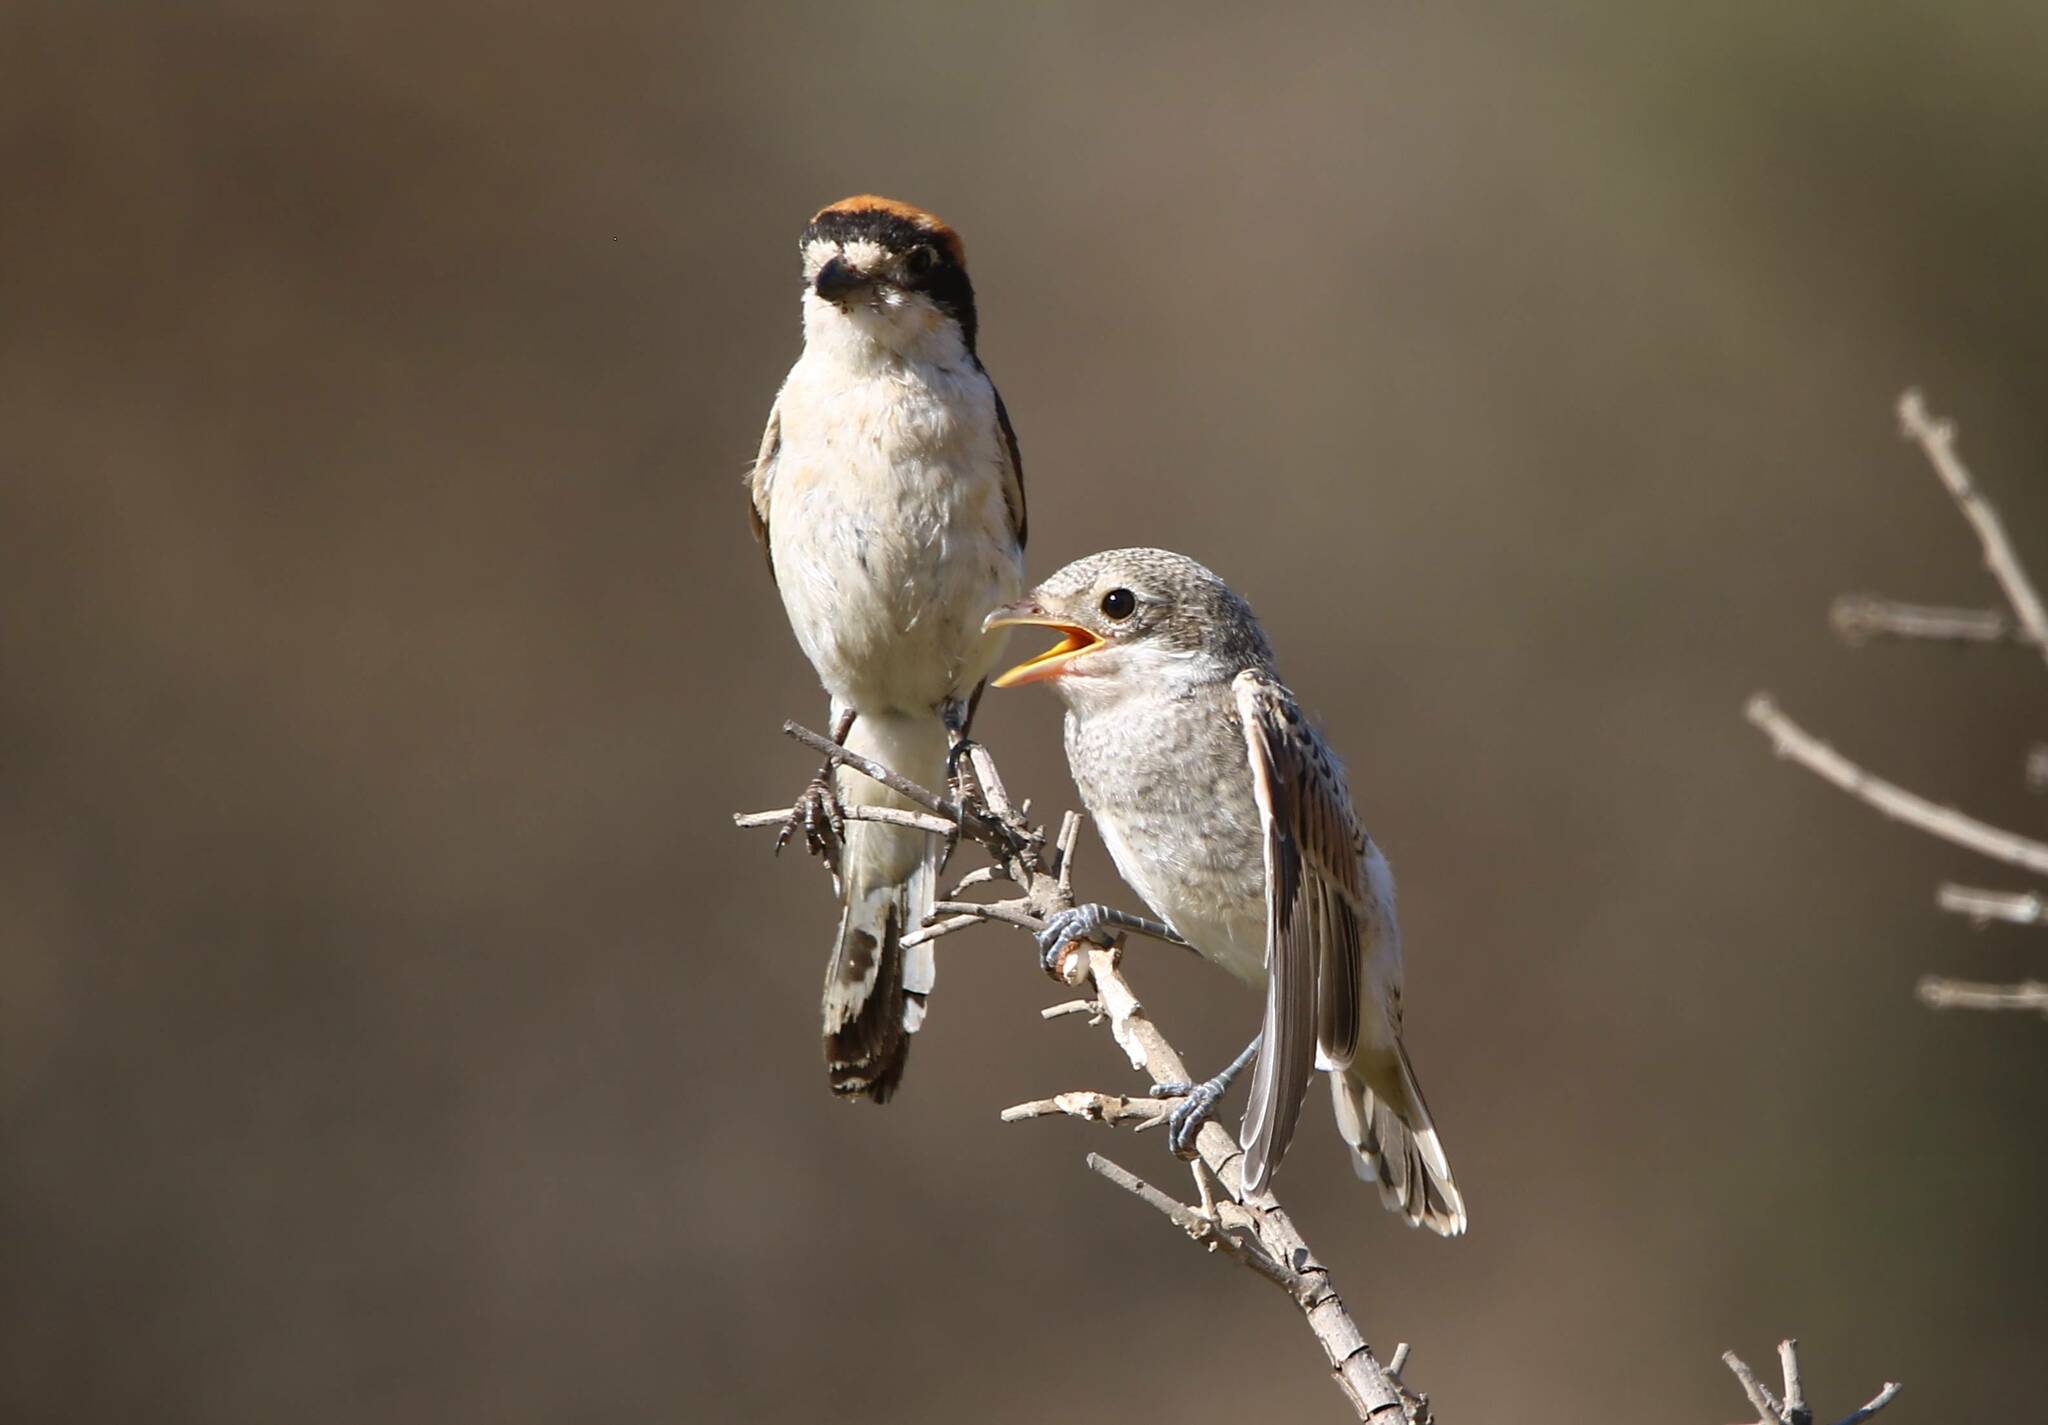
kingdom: Animalia
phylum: Chordata
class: Aves
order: Passeriformes
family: Laniidae
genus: Lanius
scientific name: Lanius senator
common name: Woodchat shrike
